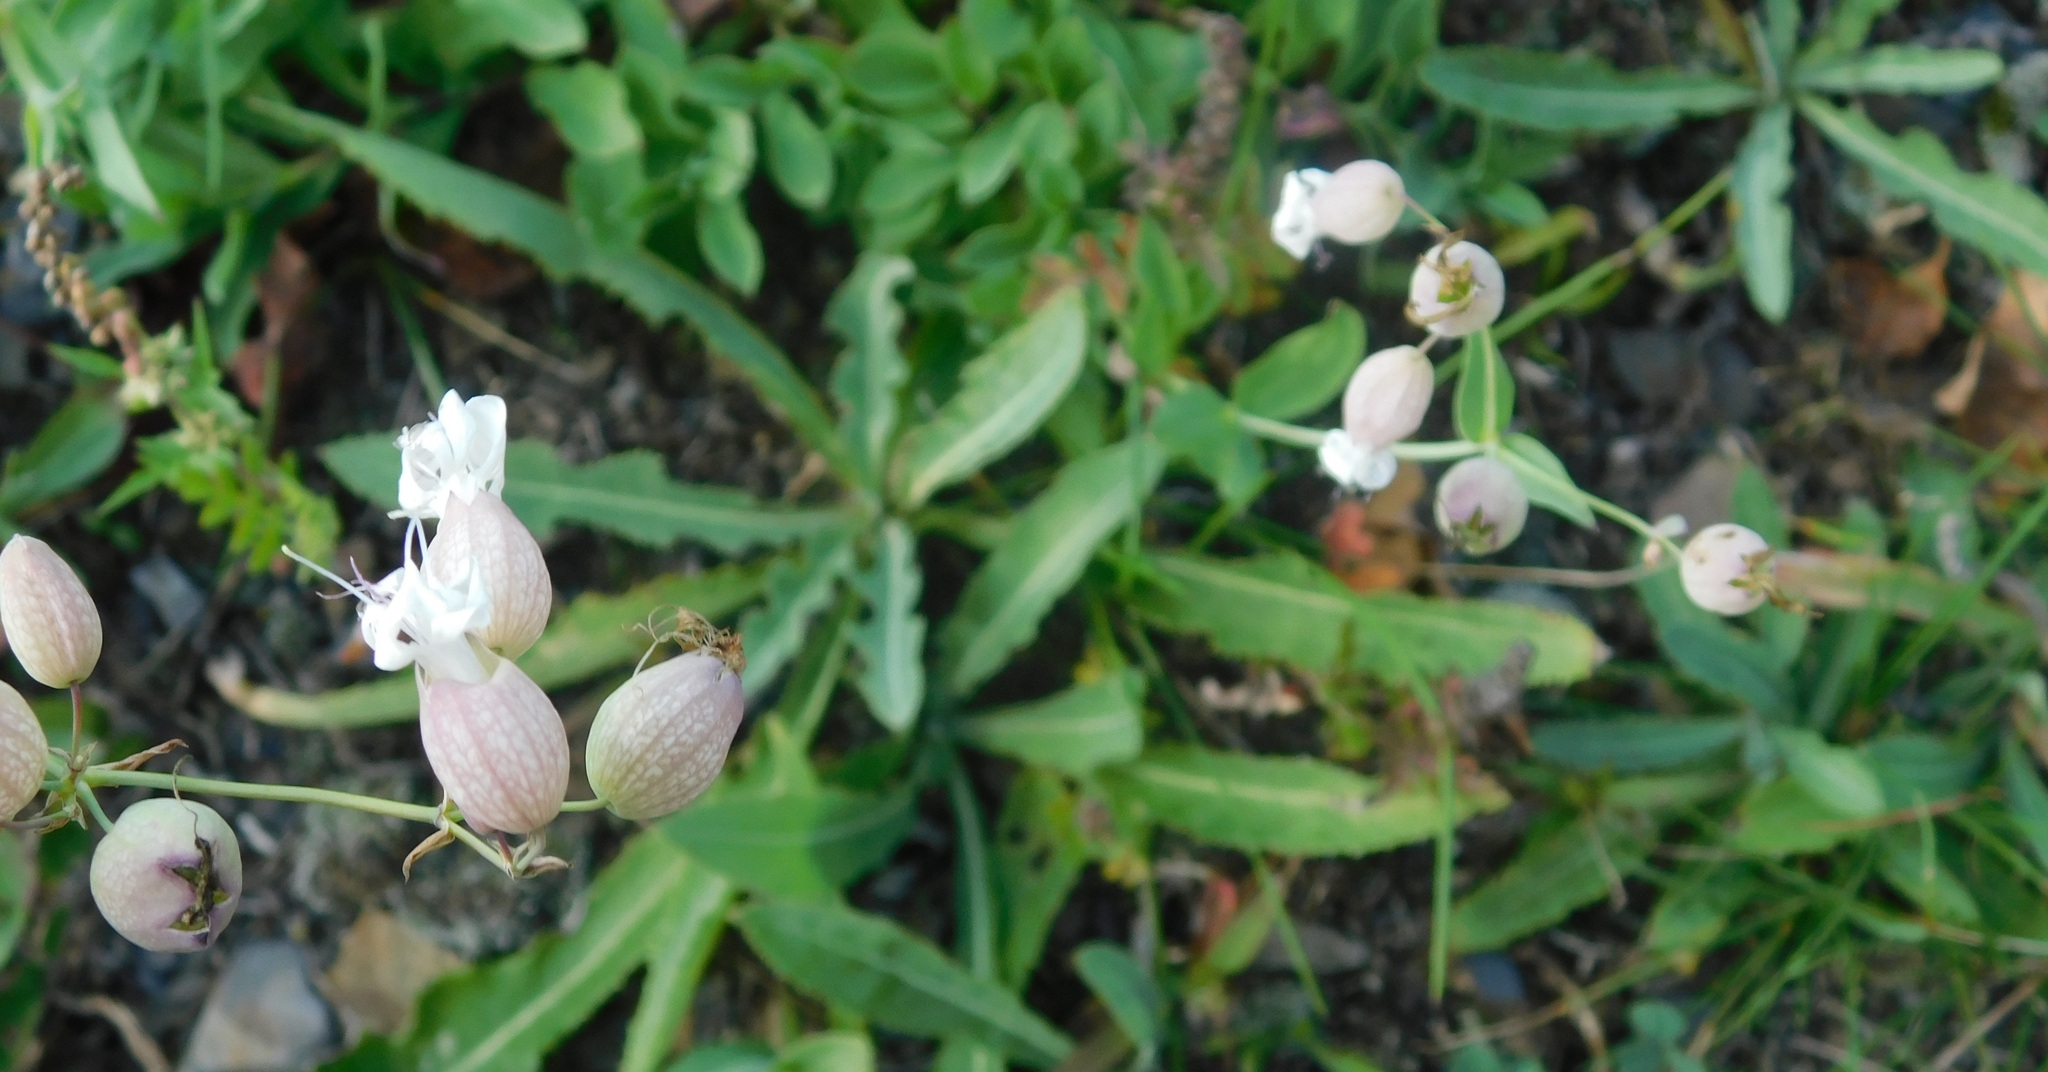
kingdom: Plantae
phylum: Tracheophyta
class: Magnoliopsida
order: Caryophyllales
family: Caryophyllaceae
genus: Silene
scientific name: Silene vulgaris
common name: Bladder campion
